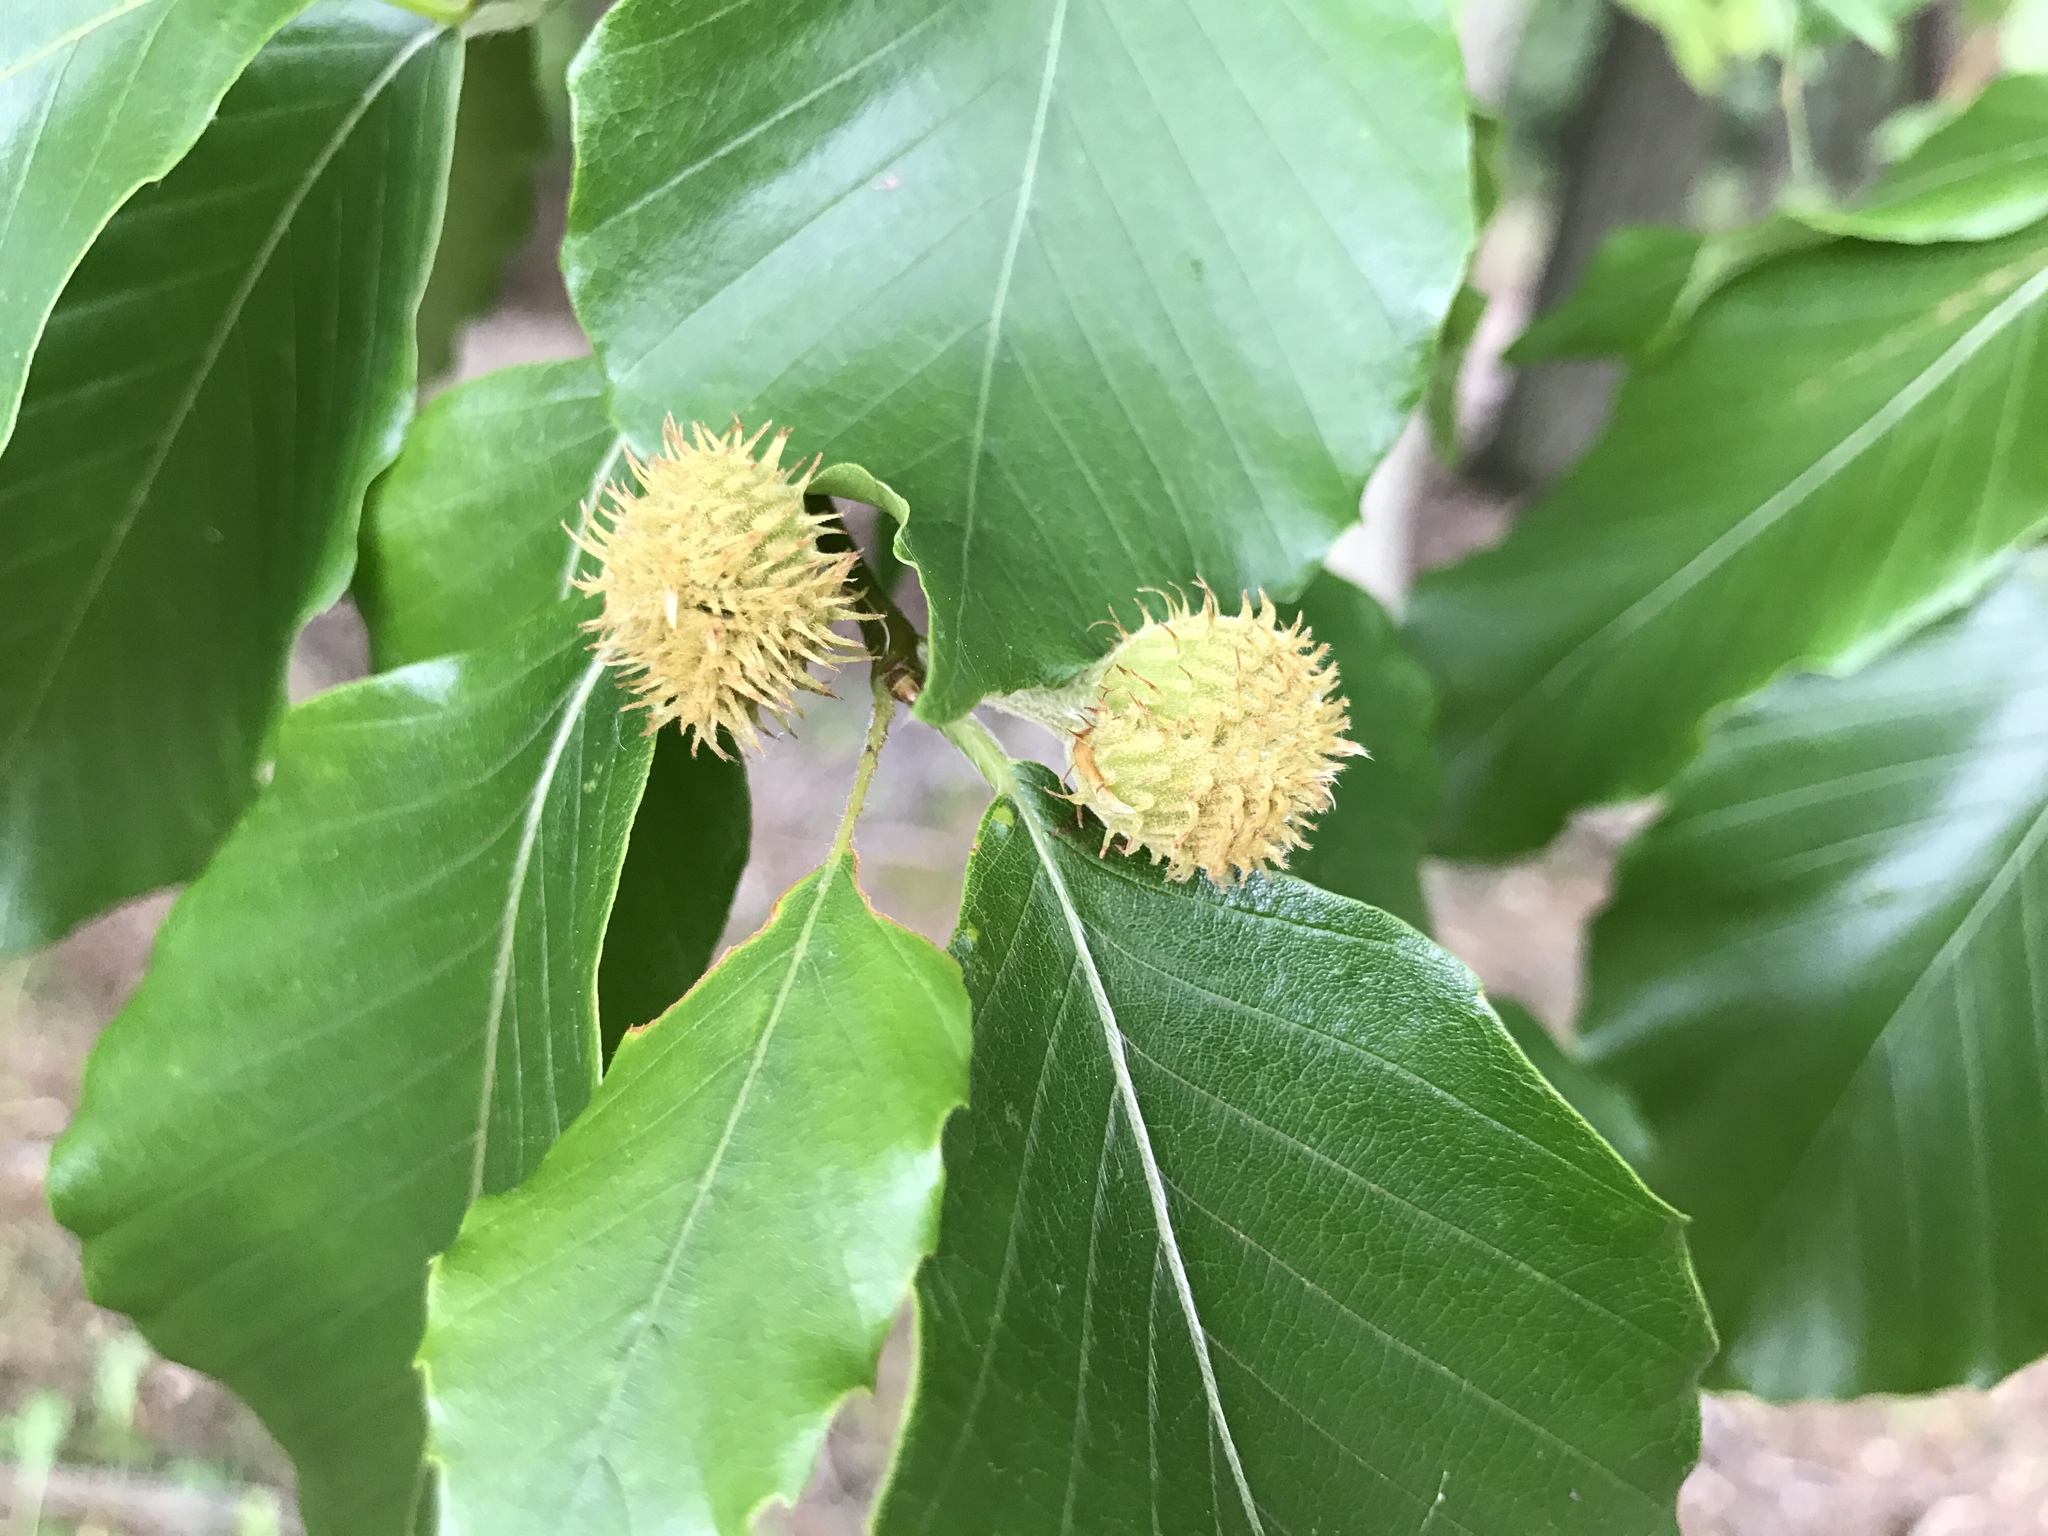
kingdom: Plantae
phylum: Tracheophyta
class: Magnoliopsida
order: Fagales
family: Fagaceae
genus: Fagus
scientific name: Fagus grandifolia
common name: American beech
